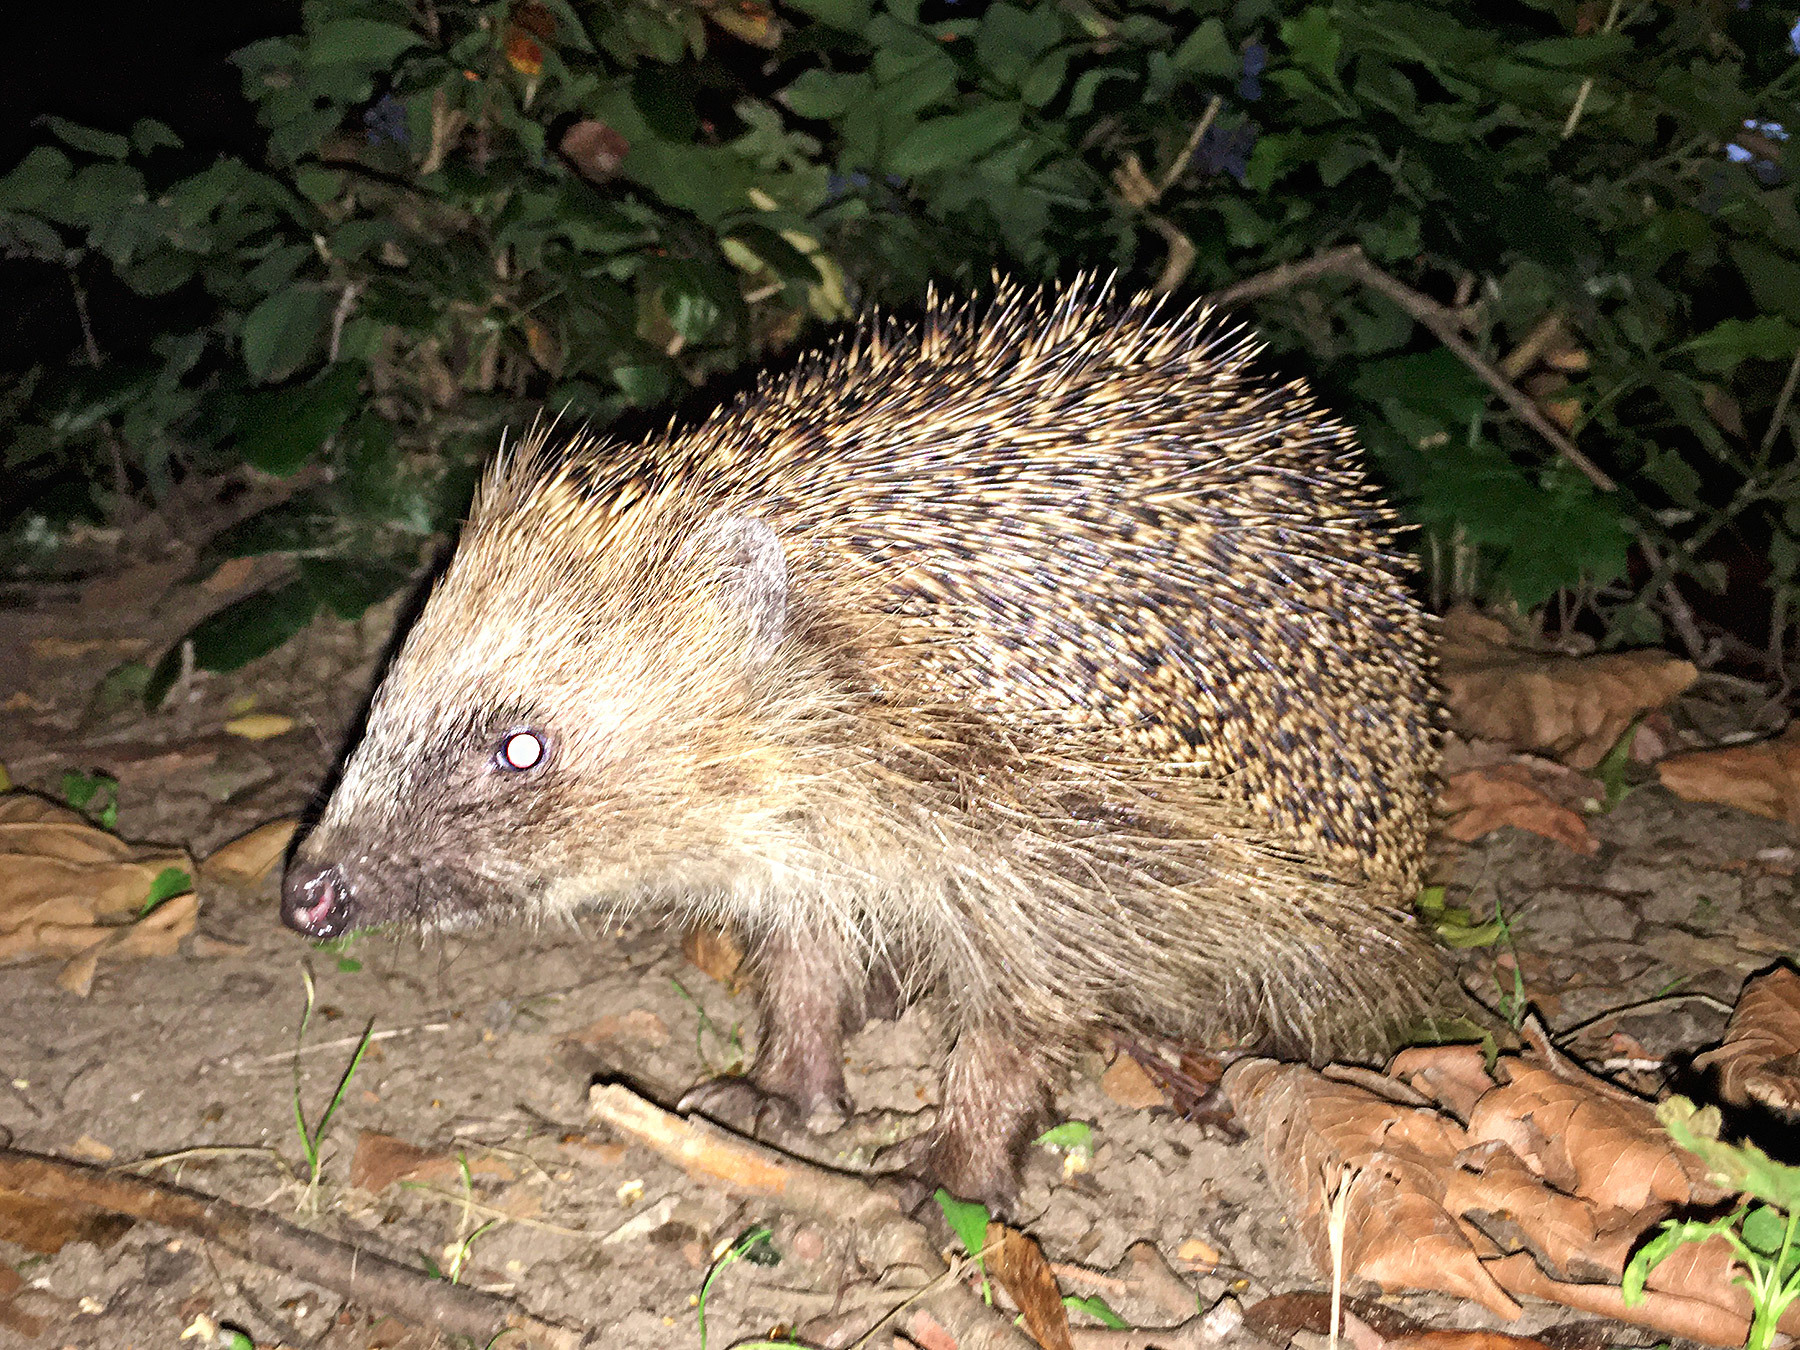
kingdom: Animalia
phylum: Chordata
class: Mammalia
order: Erinaceomorpha
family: Erinaceidae
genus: Erinaceus
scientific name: Erinaceus europaeus
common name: West european hedgehog
